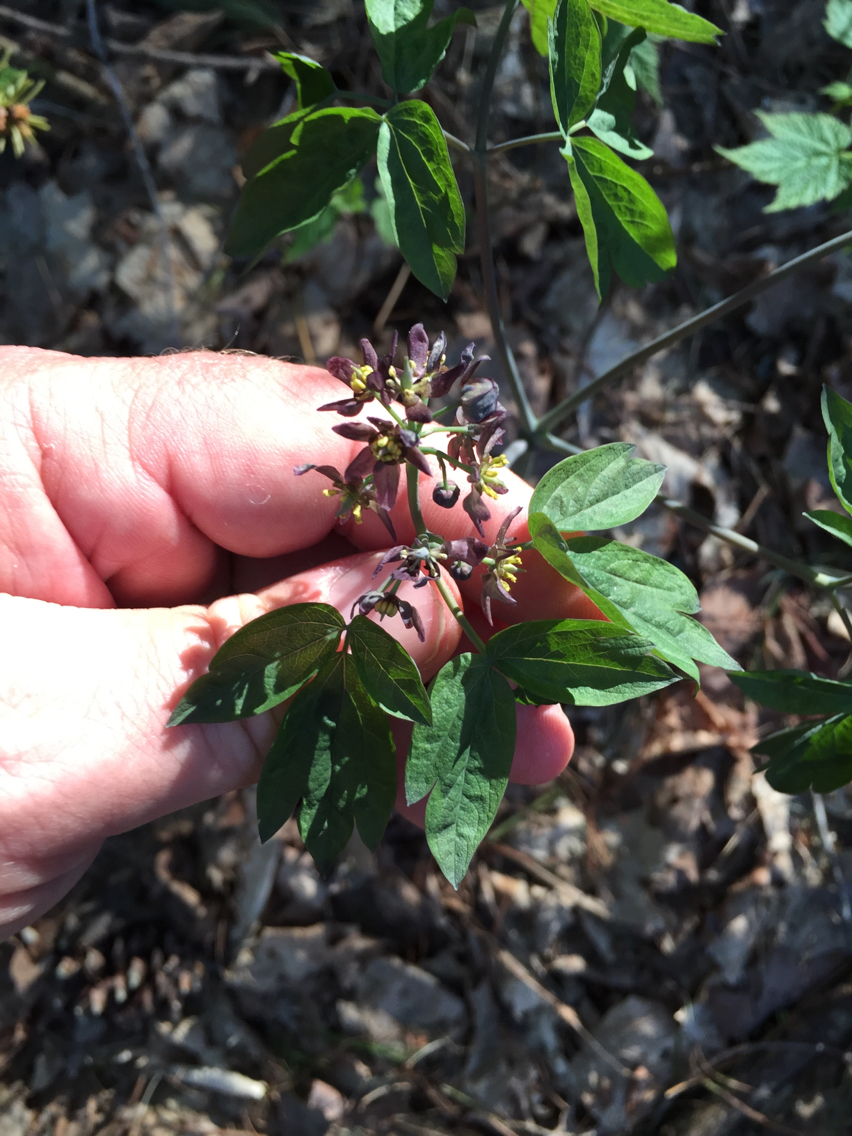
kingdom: Plantae
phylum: Tracheophyta
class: Magnoliopsida
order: Ranunculales
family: Berberidaceae
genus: Caulophyllum
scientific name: Caulophyllum giganteum
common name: Blue cohosh
